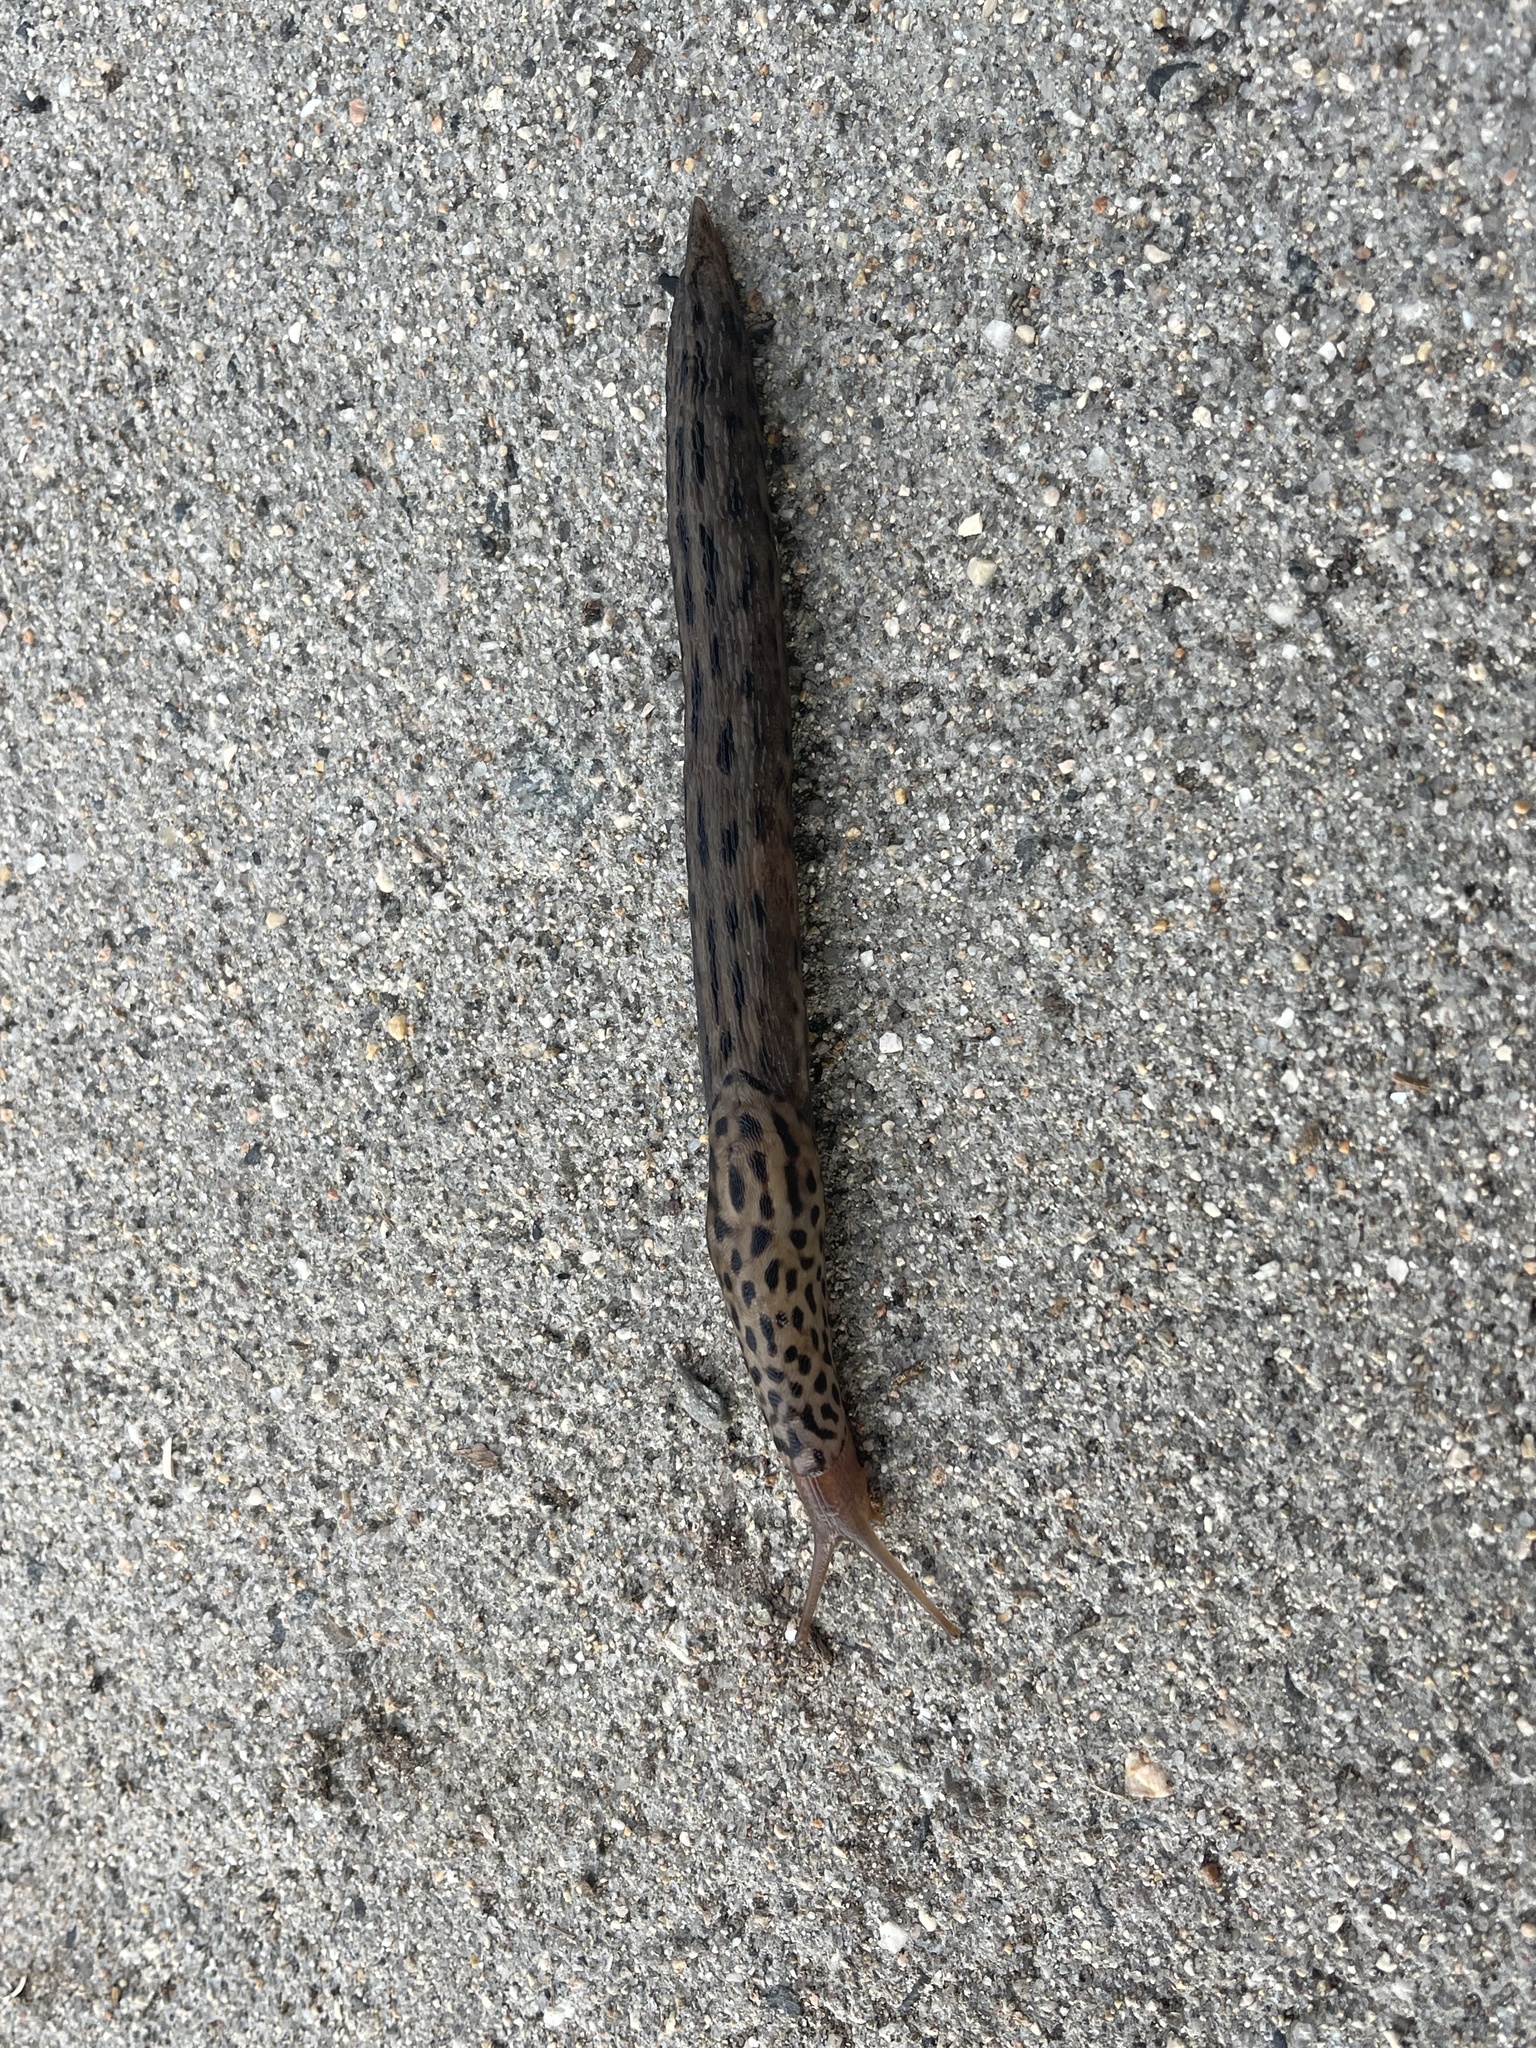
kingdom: Animalia
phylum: Mollusca
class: Gastropoda
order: Stylommatophora
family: Limacidae
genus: Limax
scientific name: Limax maximus
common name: Great grey slug
